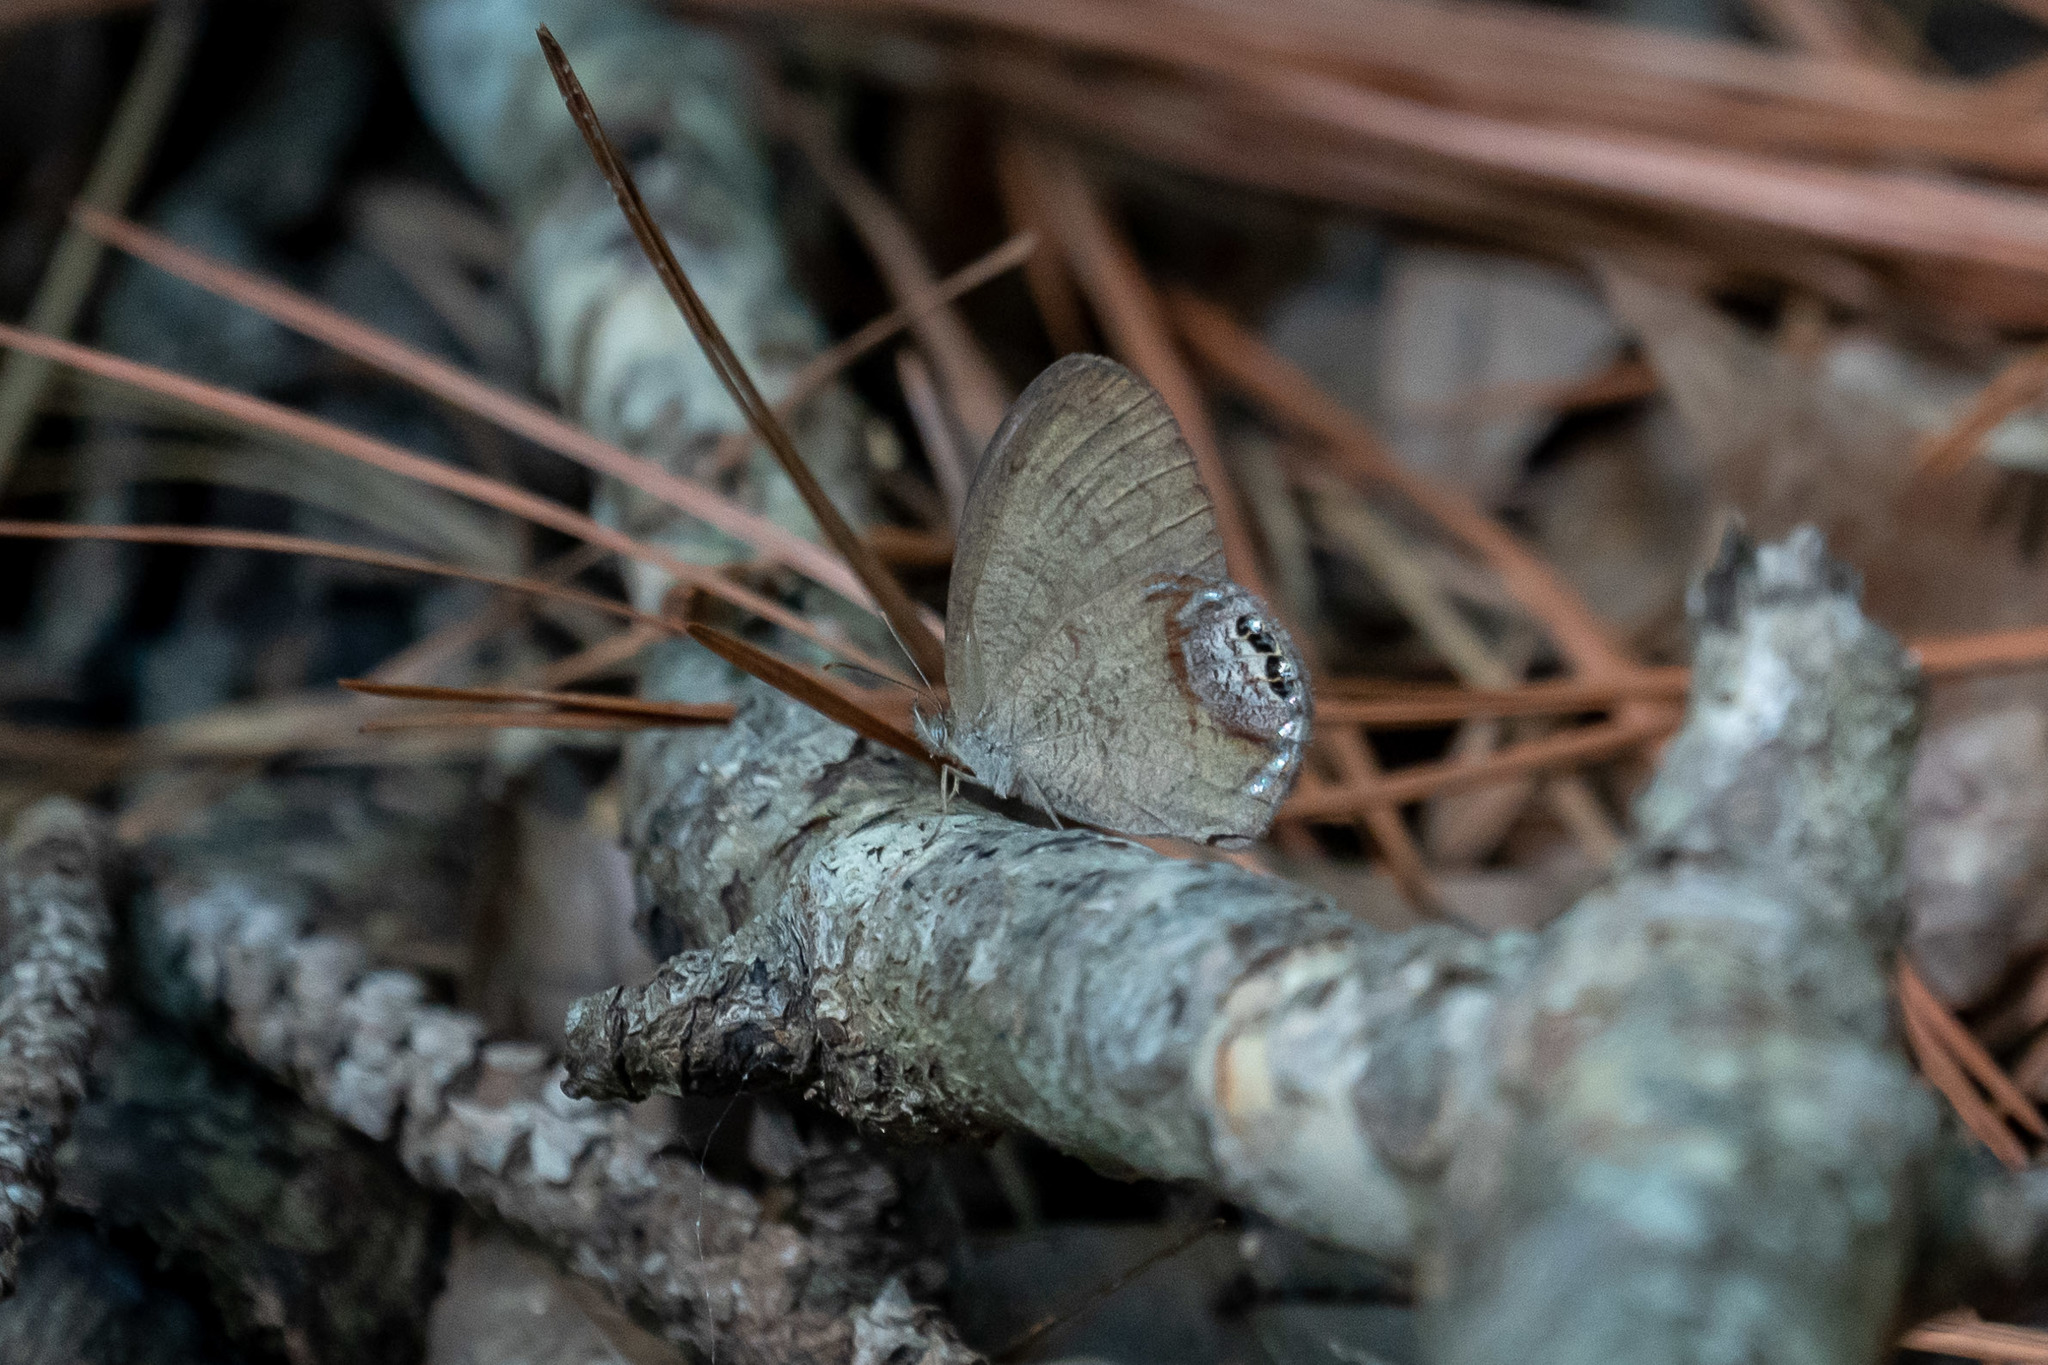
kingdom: Animalia
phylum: Arthropoda
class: Insecta
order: Lepidoptera
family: Nymphalidae
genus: Euptychia
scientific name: Euptychia cornelius
